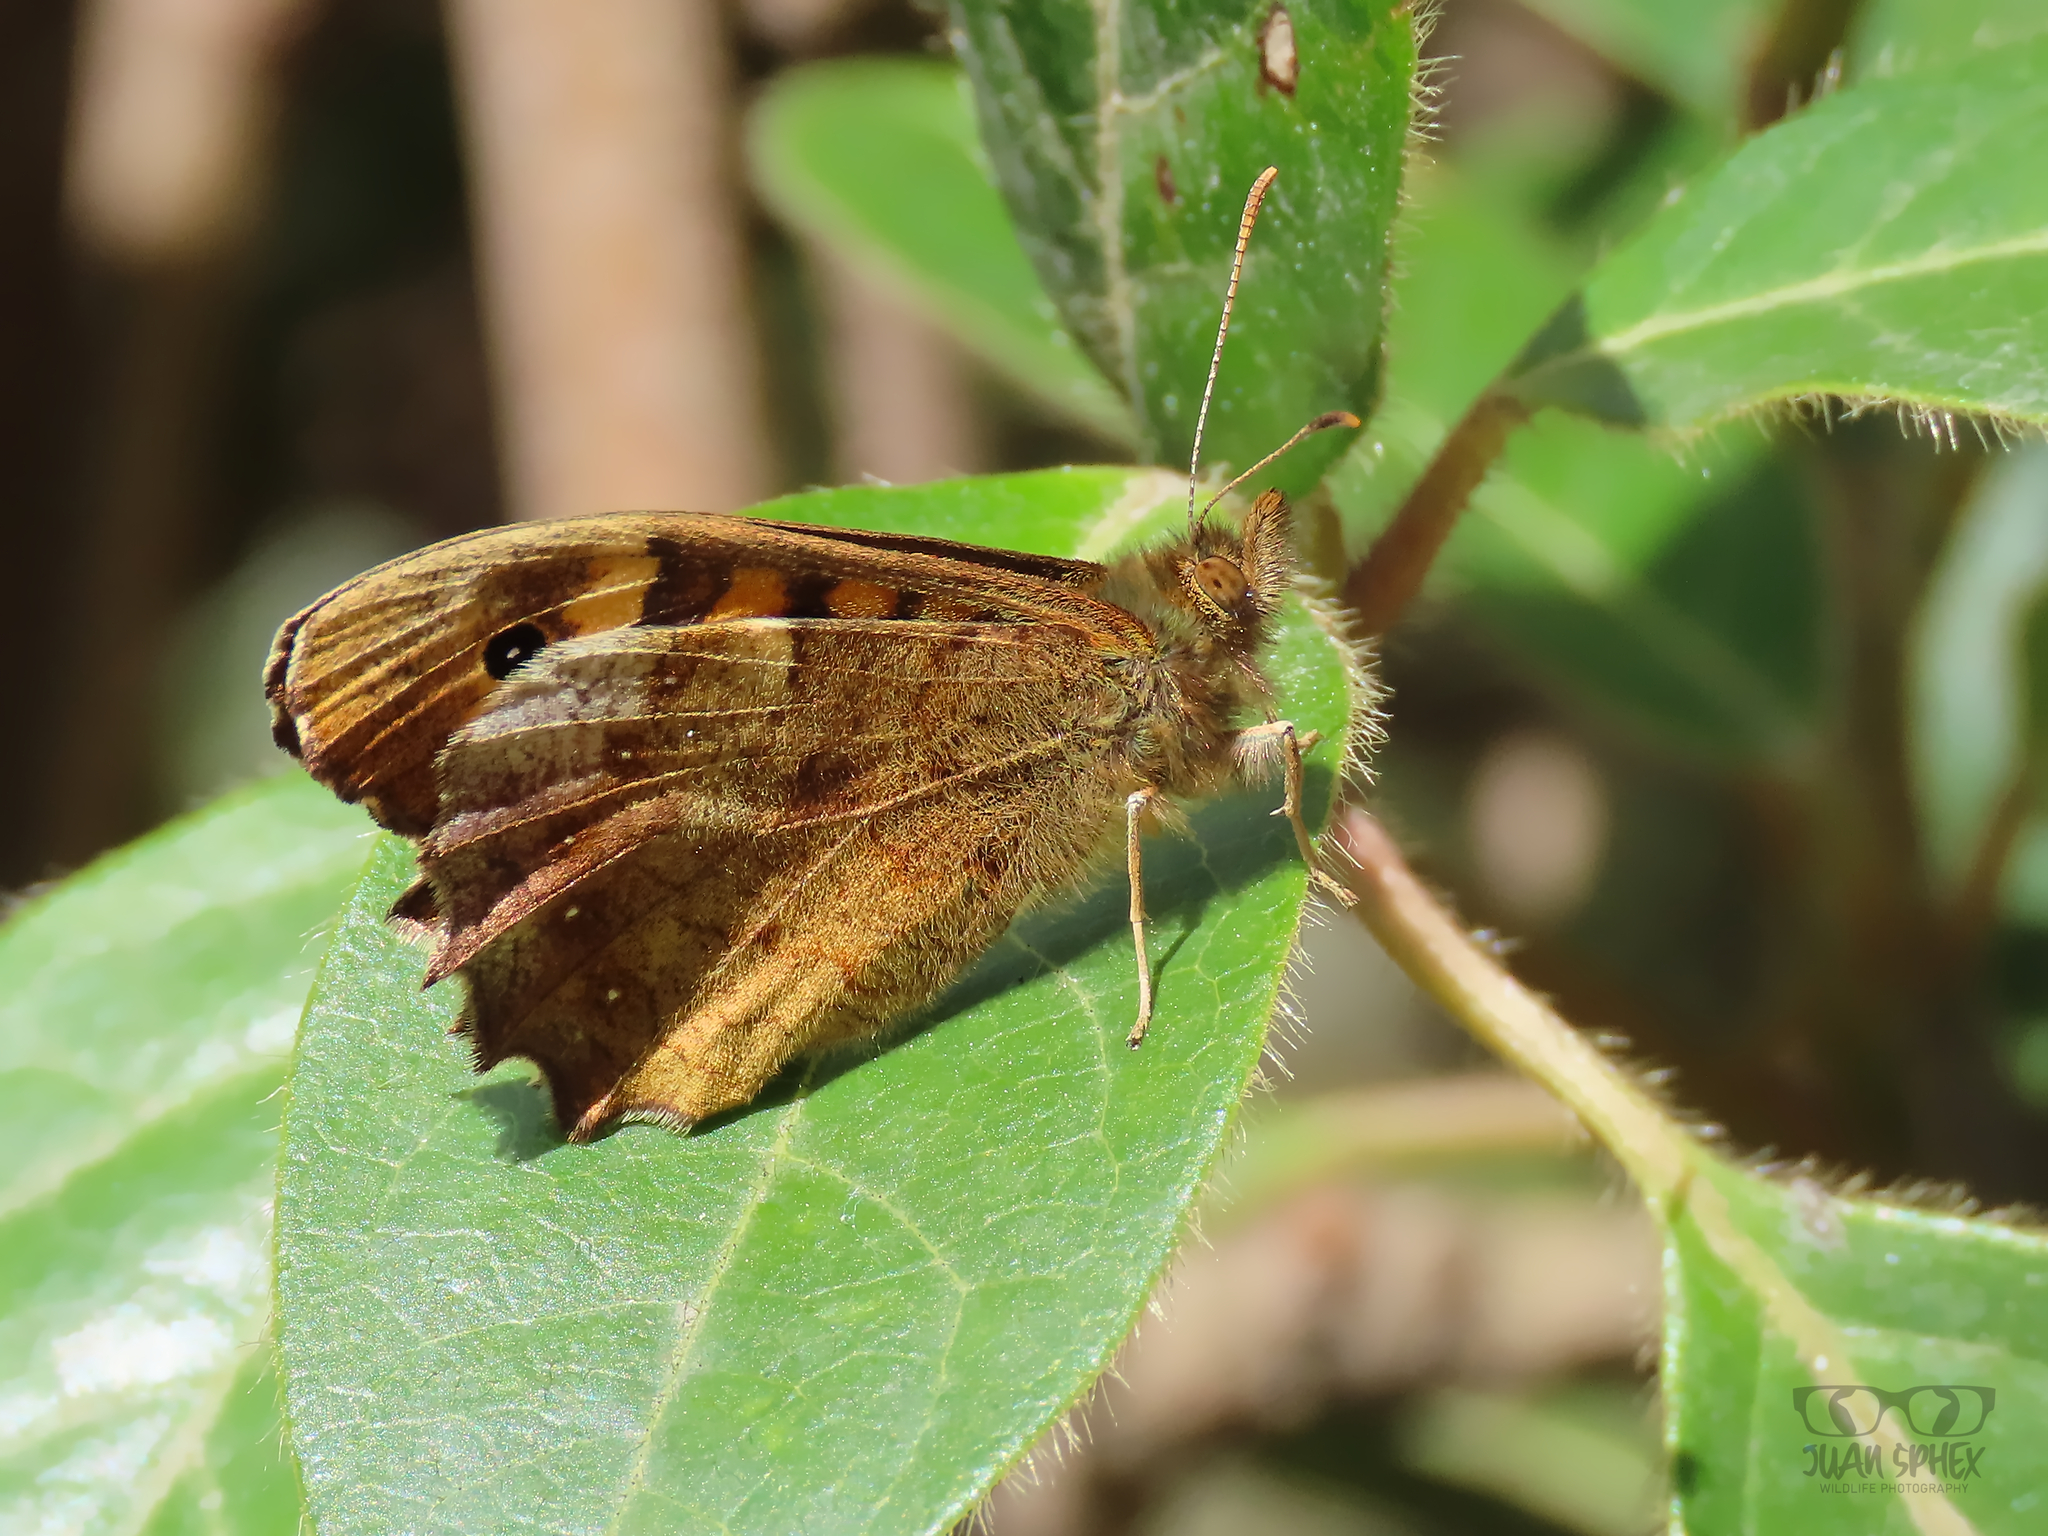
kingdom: Animalia
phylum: Arthropoda
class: Insecta
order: Lepidoptera
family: Nymphalidae
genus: Pararge
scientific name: Pararge aegeria
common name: Speckled wood
